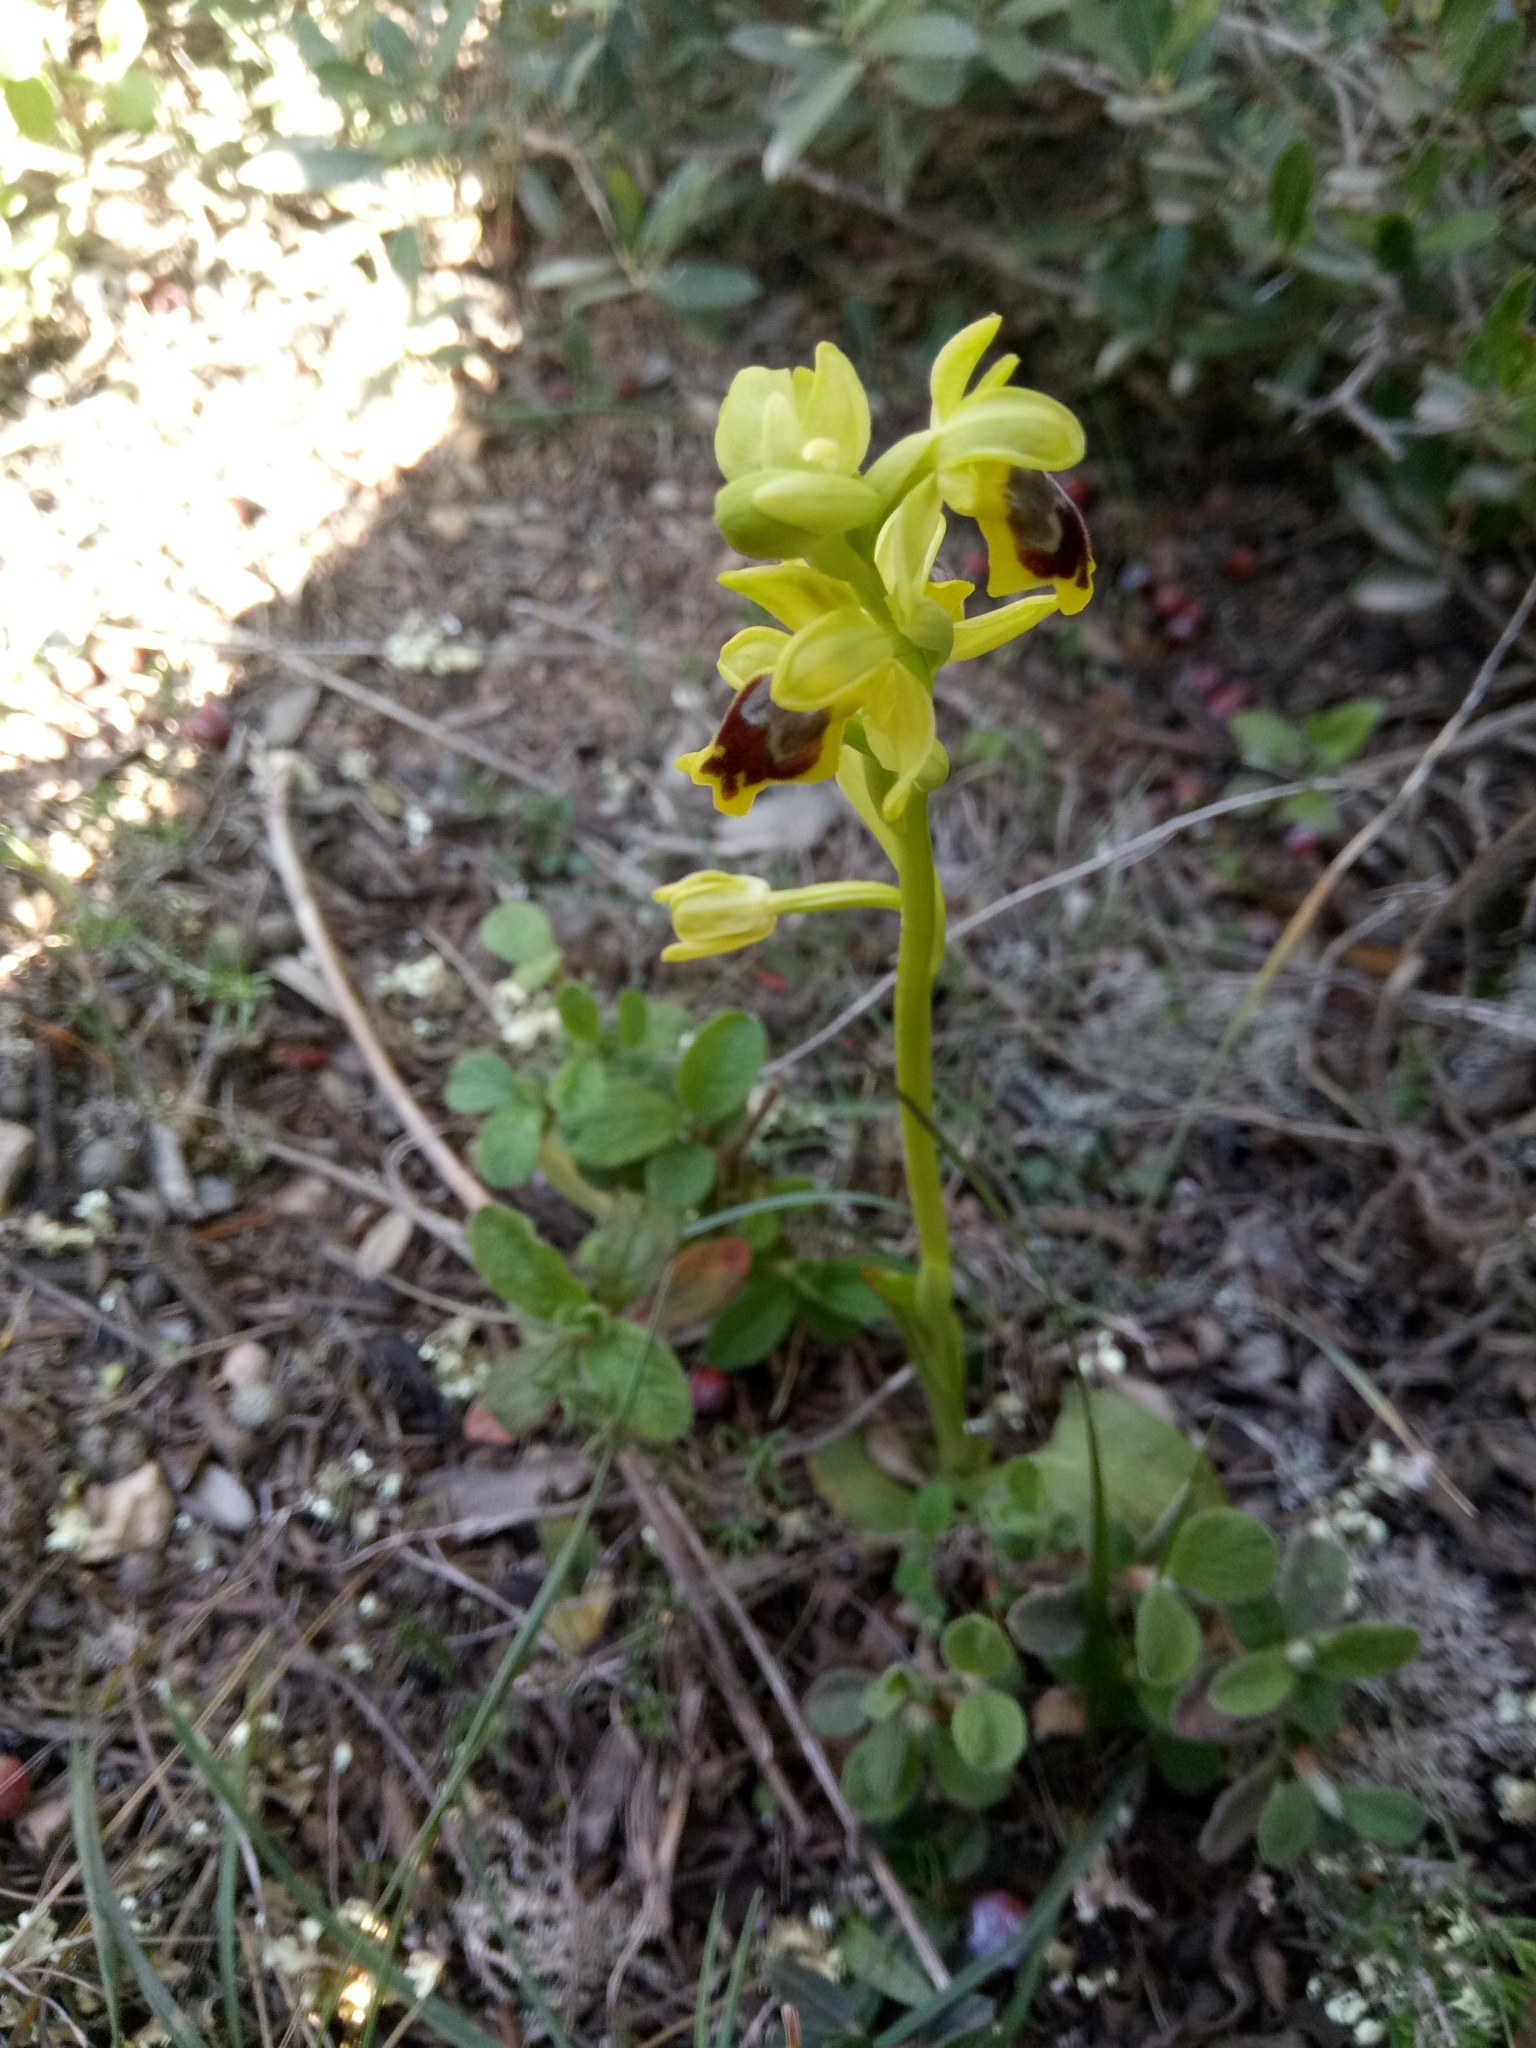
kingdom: Plantae
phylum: Tracheophyta
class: Liliopsida
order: Asparagales
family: Orchidaceae
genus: Ophrys
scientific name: Ophrys battandieri
